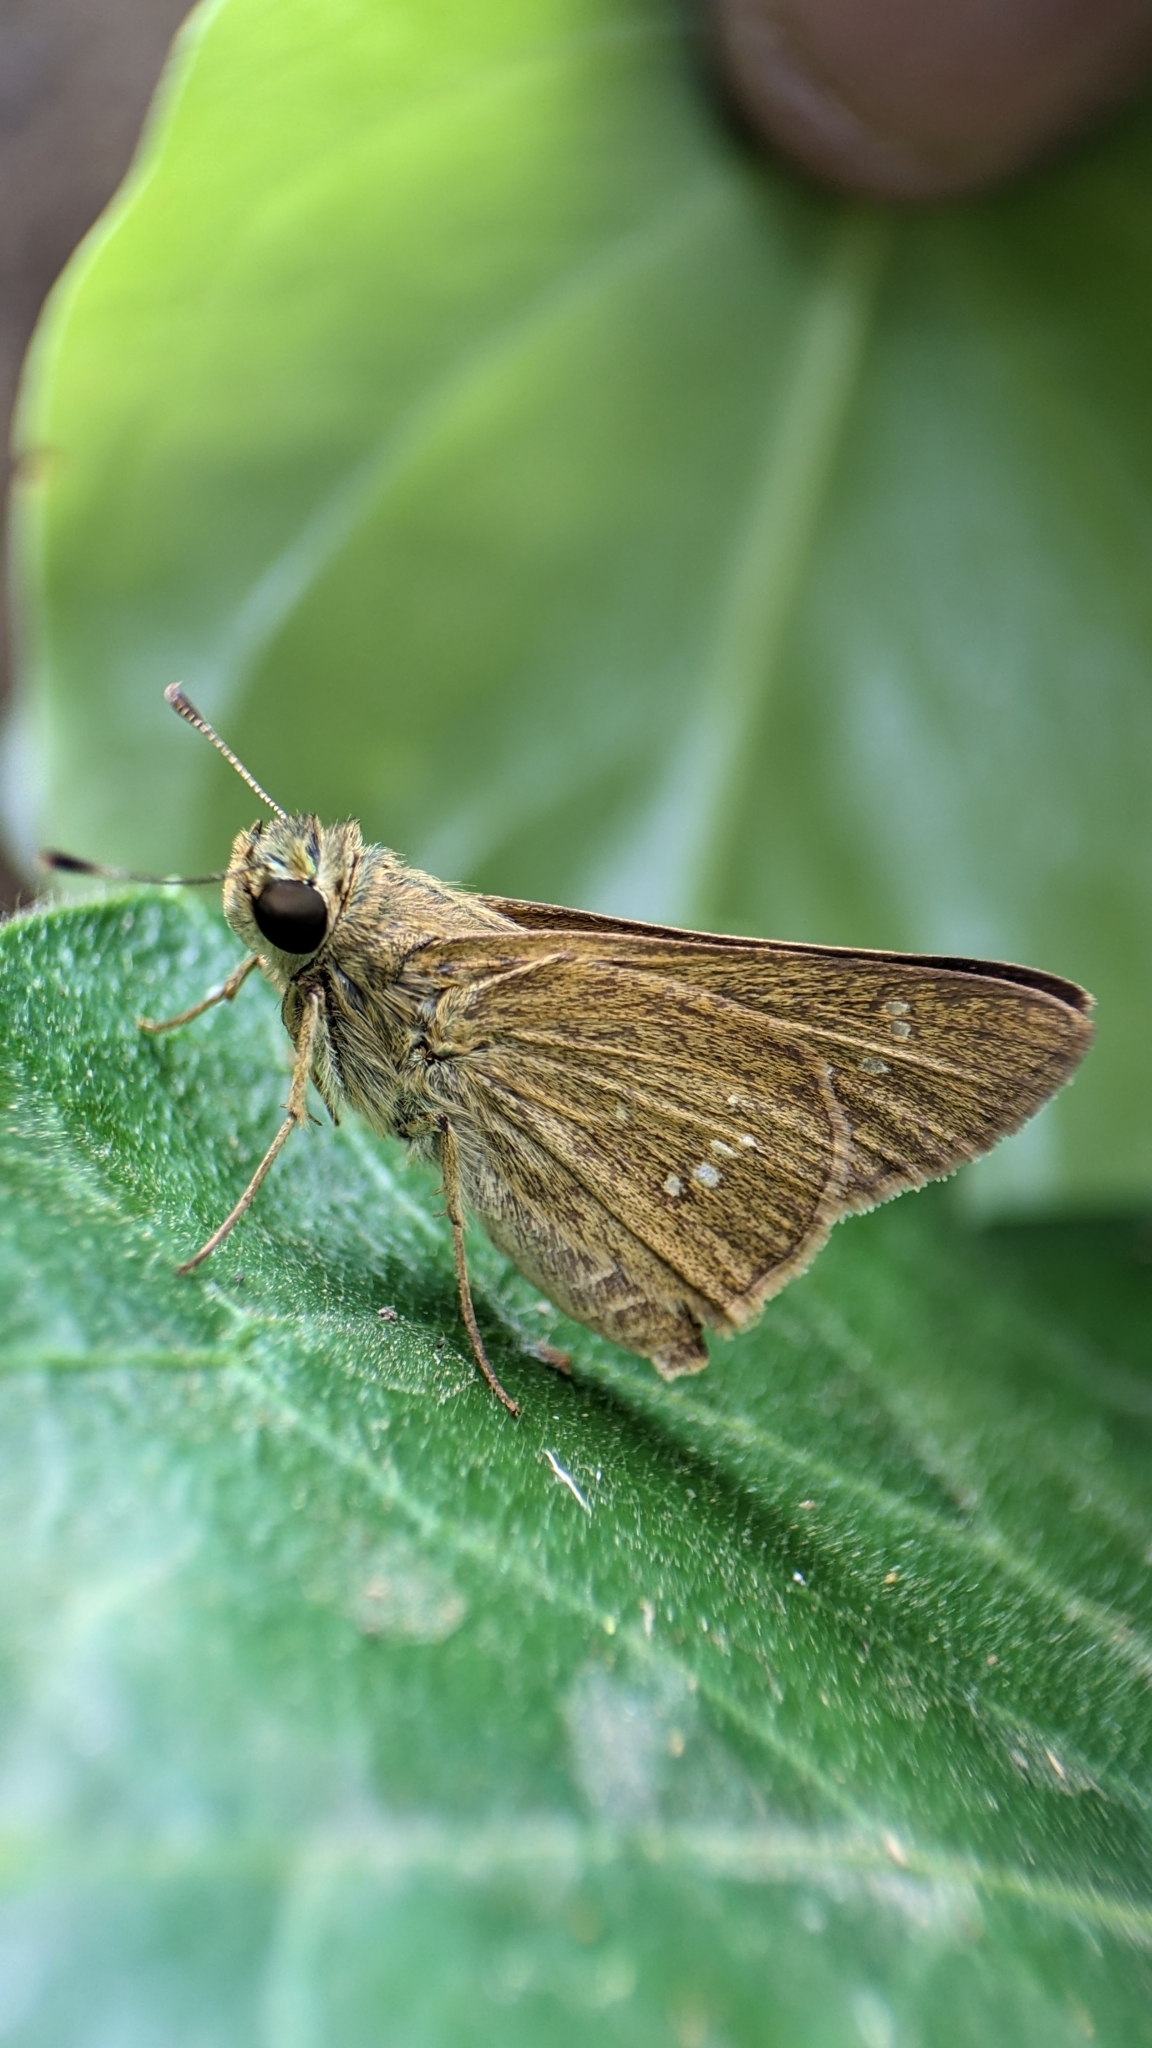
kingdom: Animalia
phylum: Arthropoda
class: Insecta
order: Lepidoptera
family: Hesperiidae
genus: Parnara
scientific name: Parnara naso
